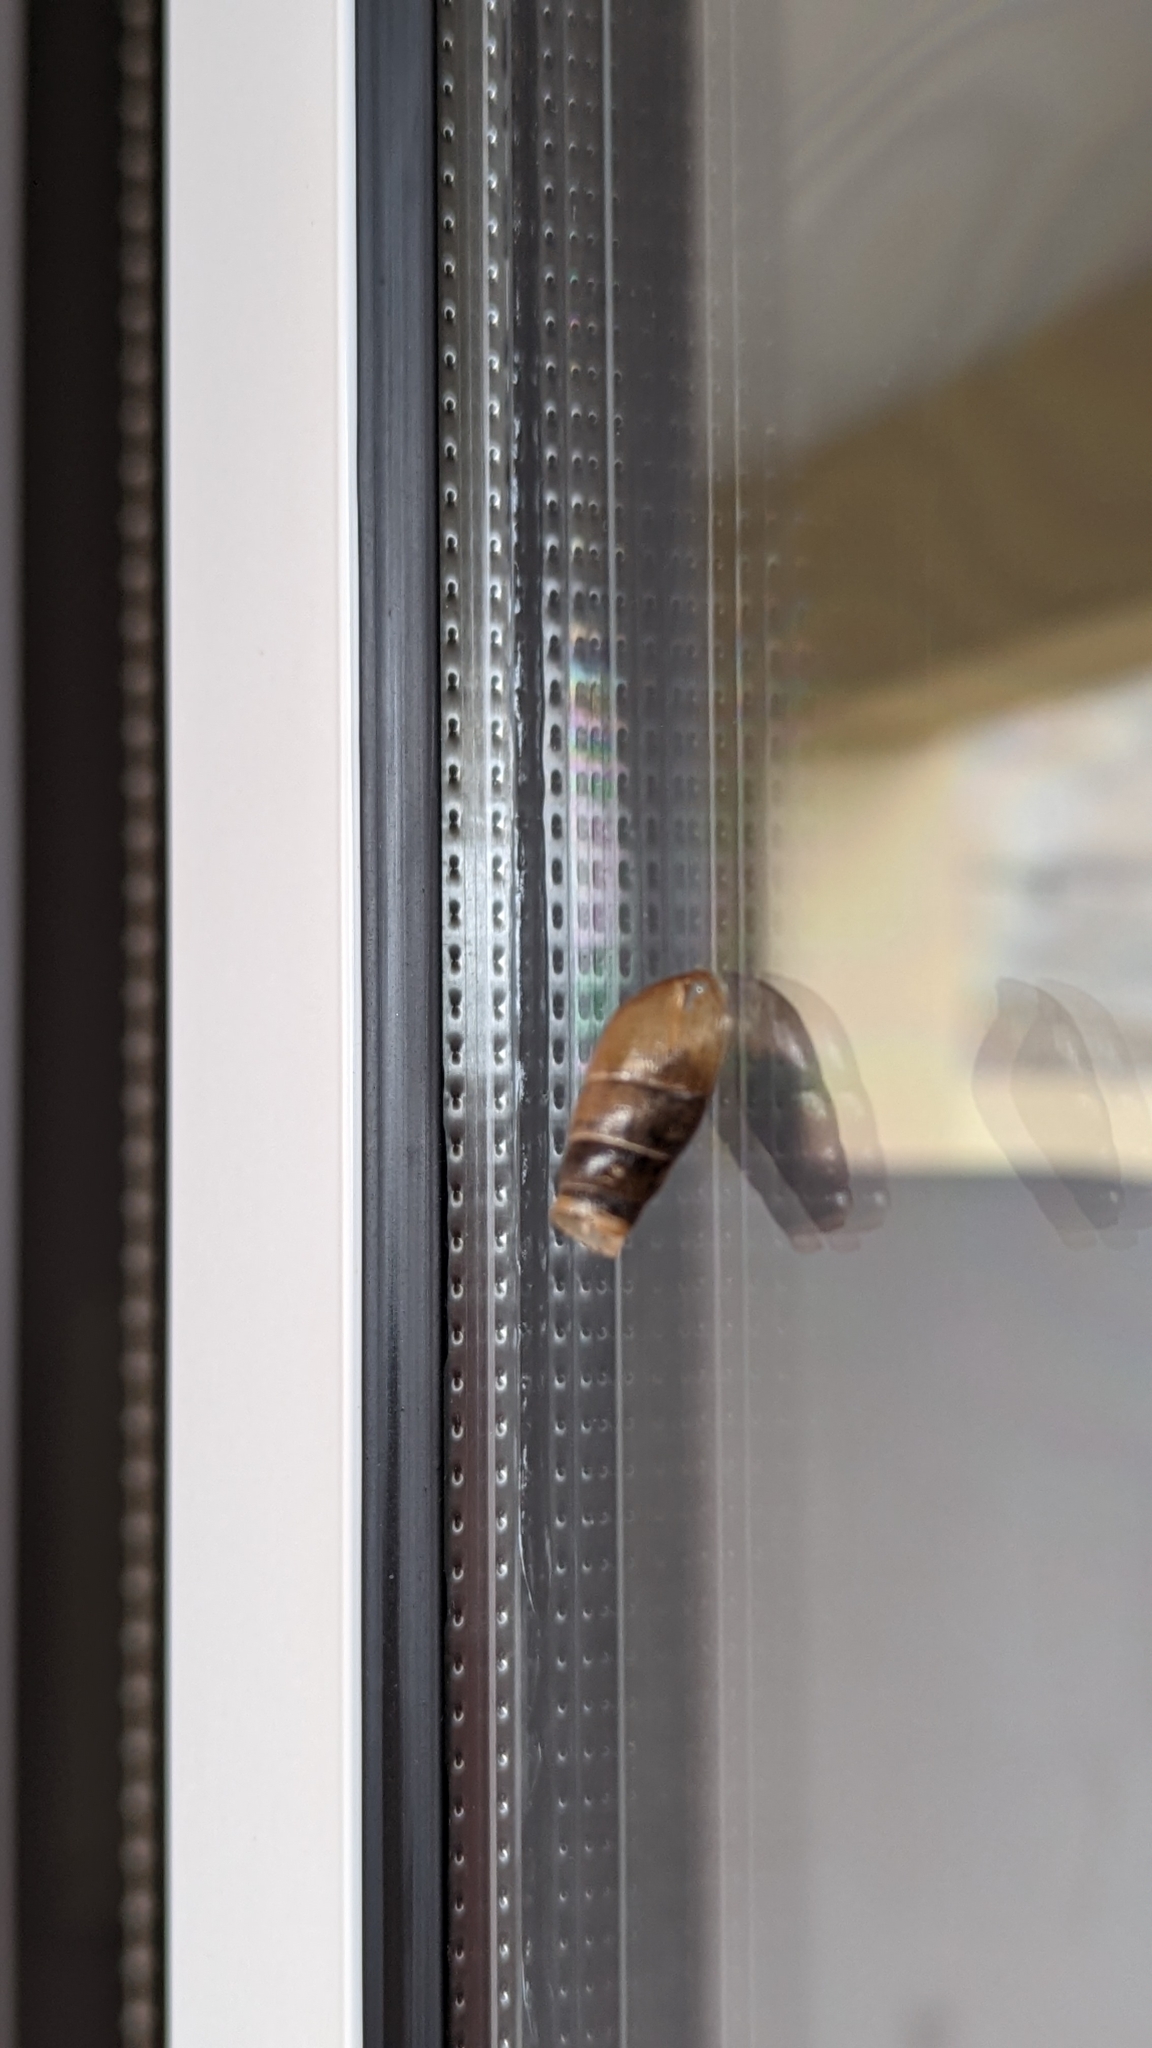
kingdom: Animalia
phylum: Mollusca
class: Gastropoda
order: Stylommatophora
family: Achatinidae
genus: Rumina
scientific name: Rumina decollata
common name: Decollate snail
